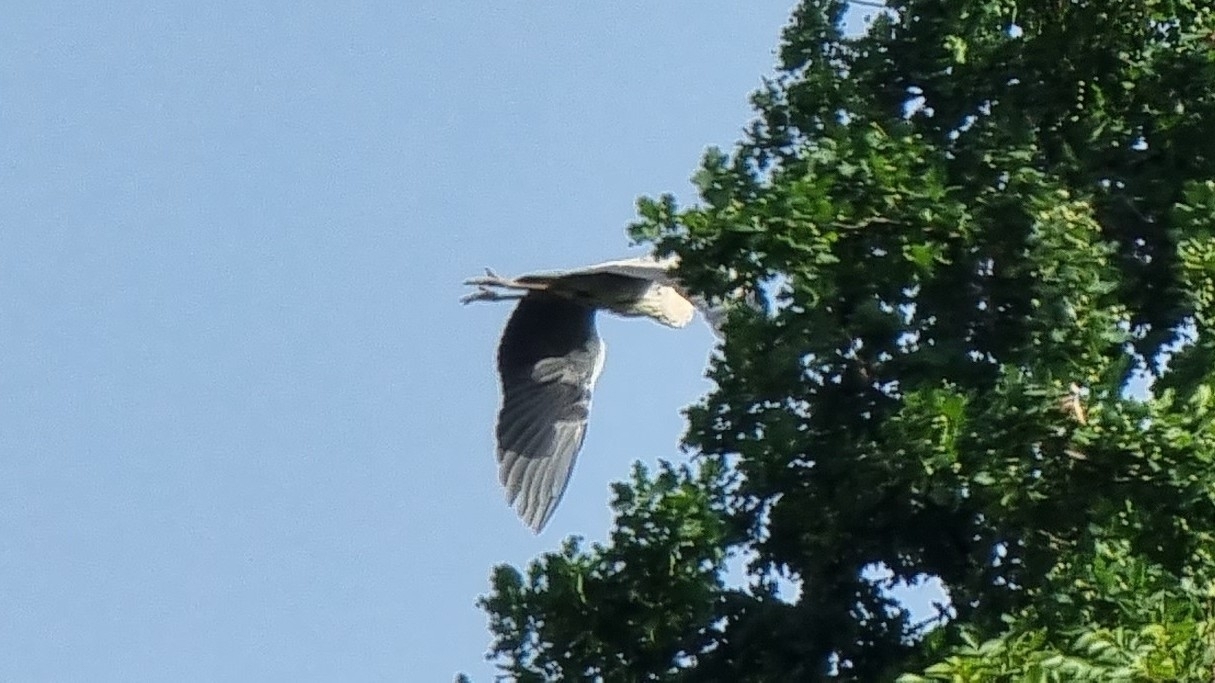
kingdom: Animalia
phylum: Chordata
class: Aves
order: Pelecaniformes
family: Ardeidae
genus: Ardea
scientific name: Ardea cinerea
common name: Grey heron
